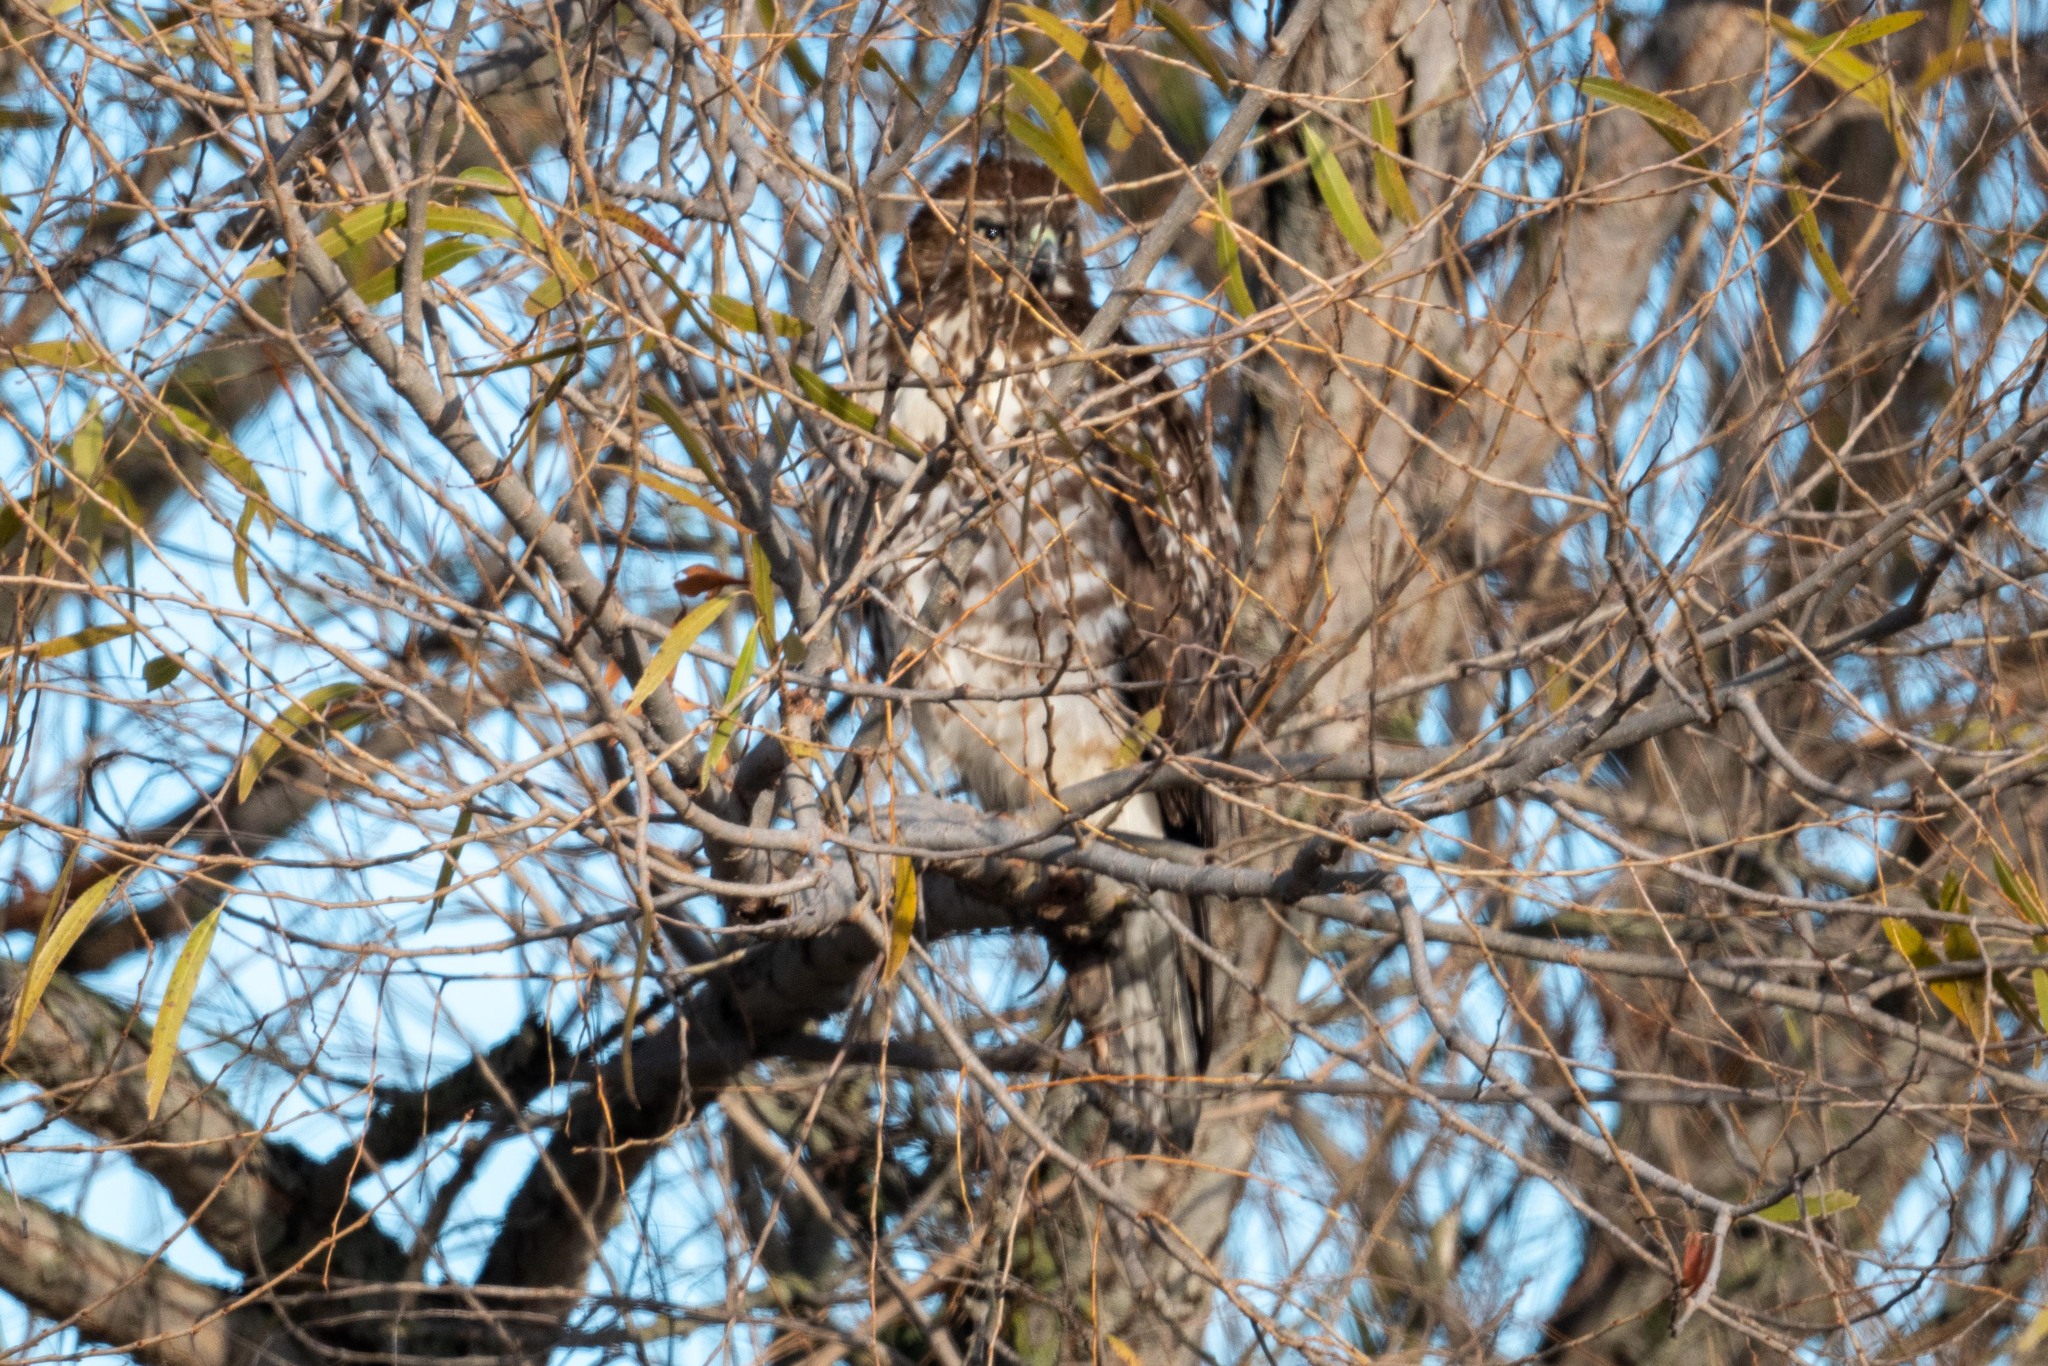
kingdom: Animalia
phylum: Chordata
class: Aves
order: Accipitriformes
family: Accipitridae
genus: Buteo
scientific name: Buteo jamaicensis
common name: Red-tailed hawk
